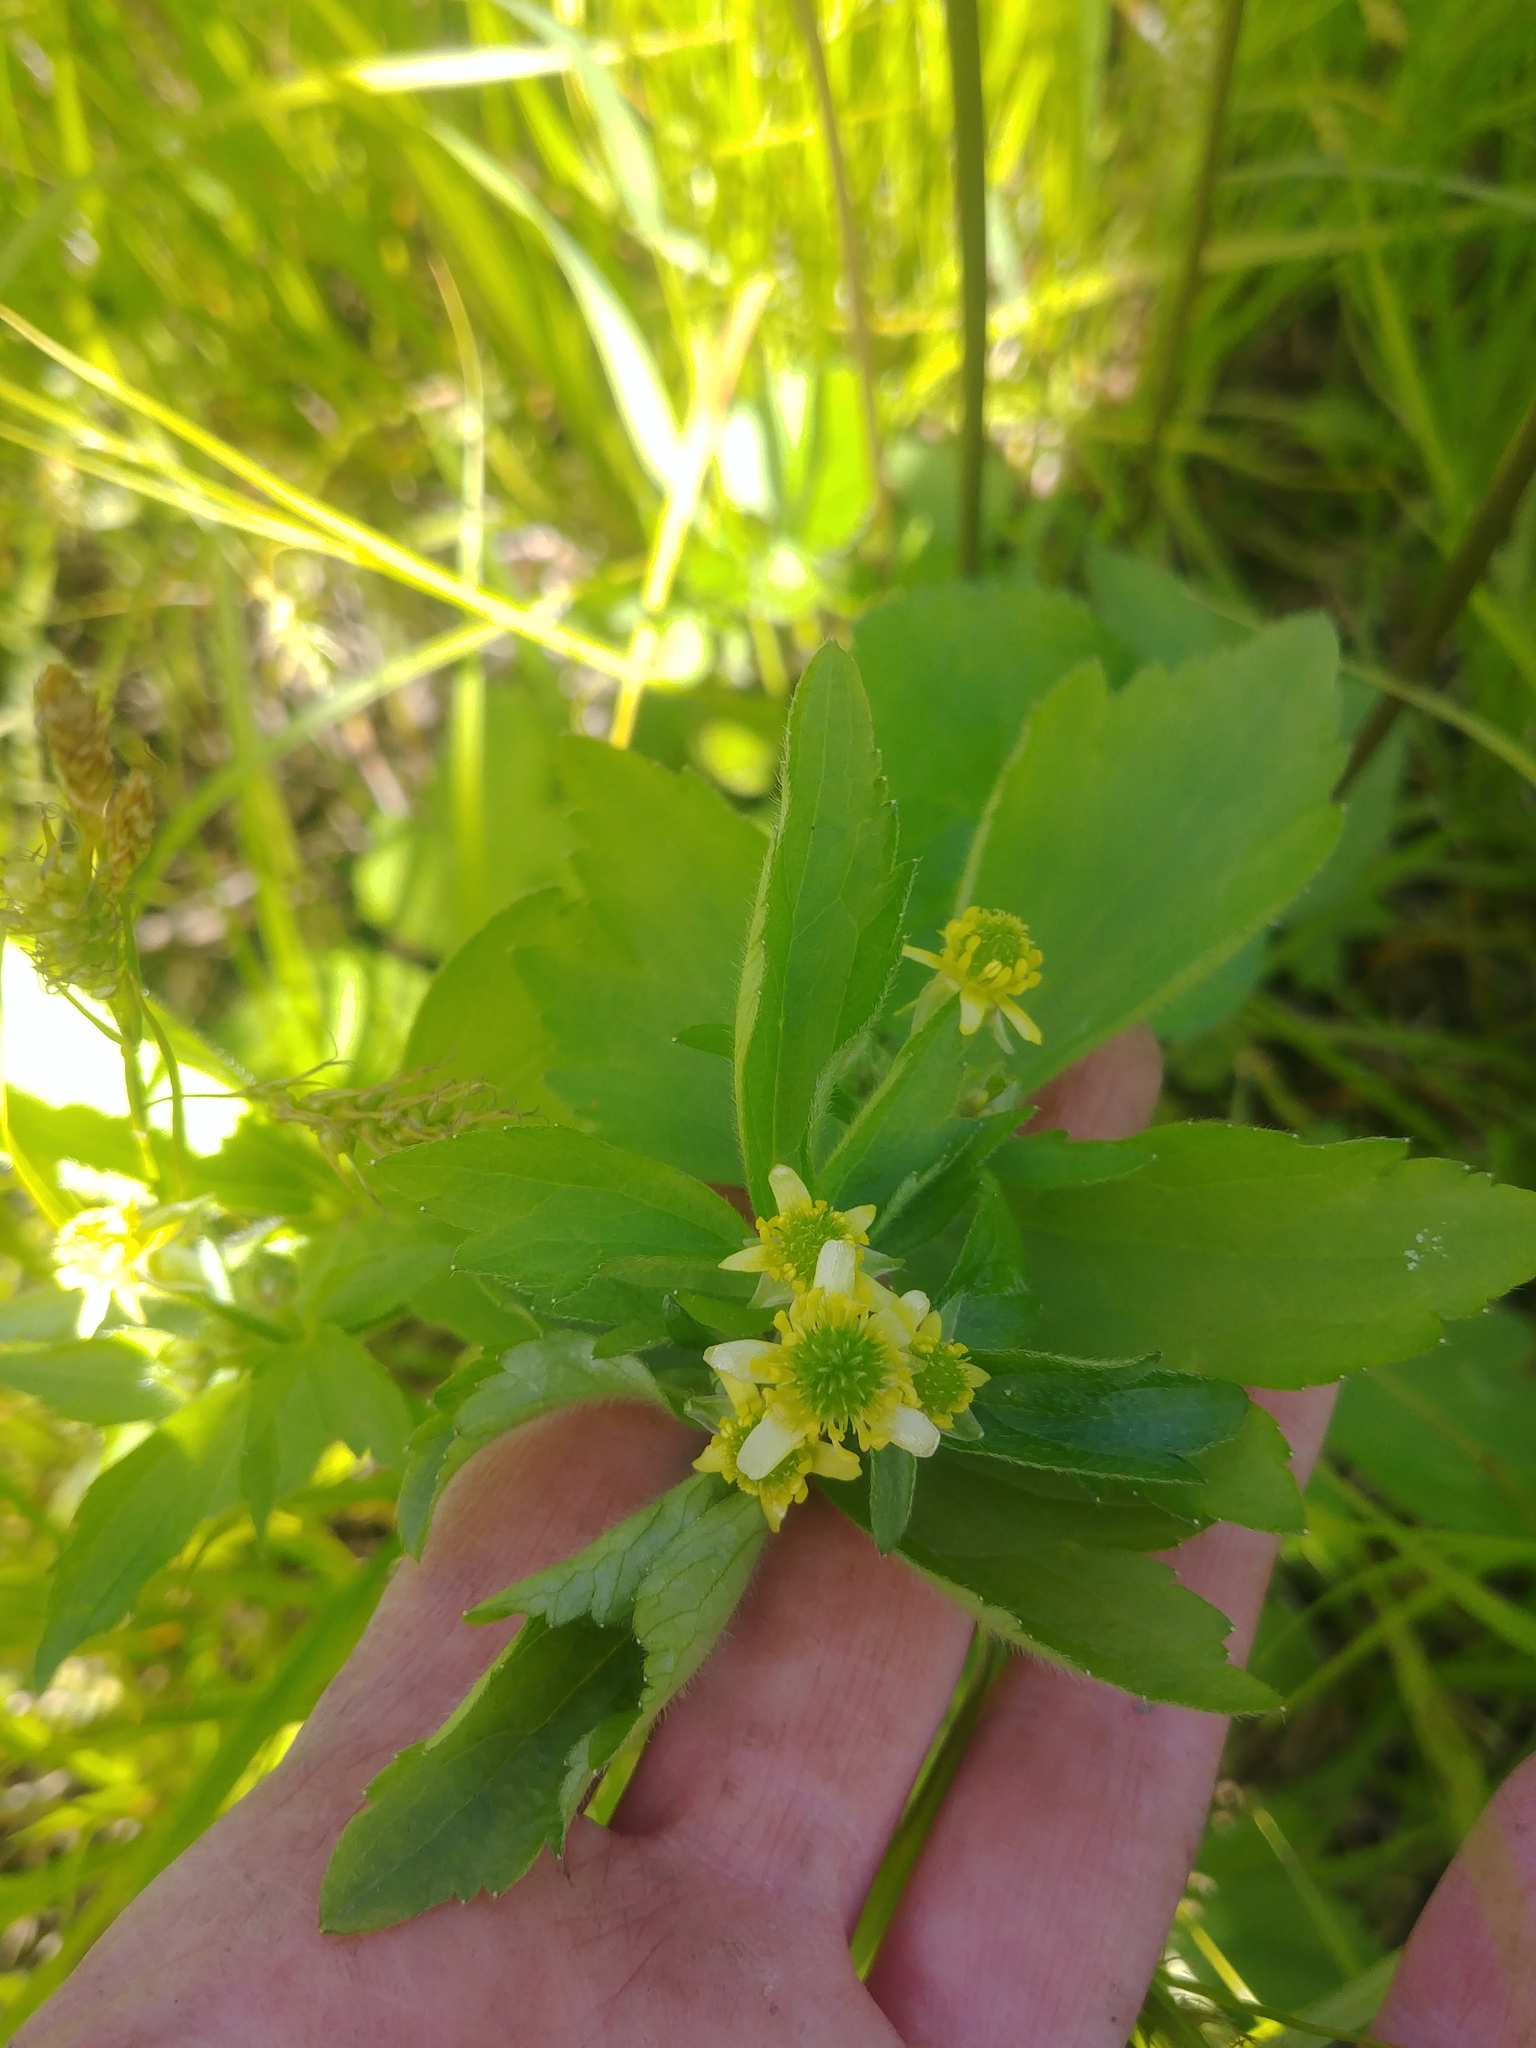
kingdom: Plantae
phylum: Tracheophyta
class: Magnoliopsida
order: Ranunculales
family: Ranunculaceae
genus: Ranunculus
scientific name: Ranunculus recurvatus
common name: Blisterwort
